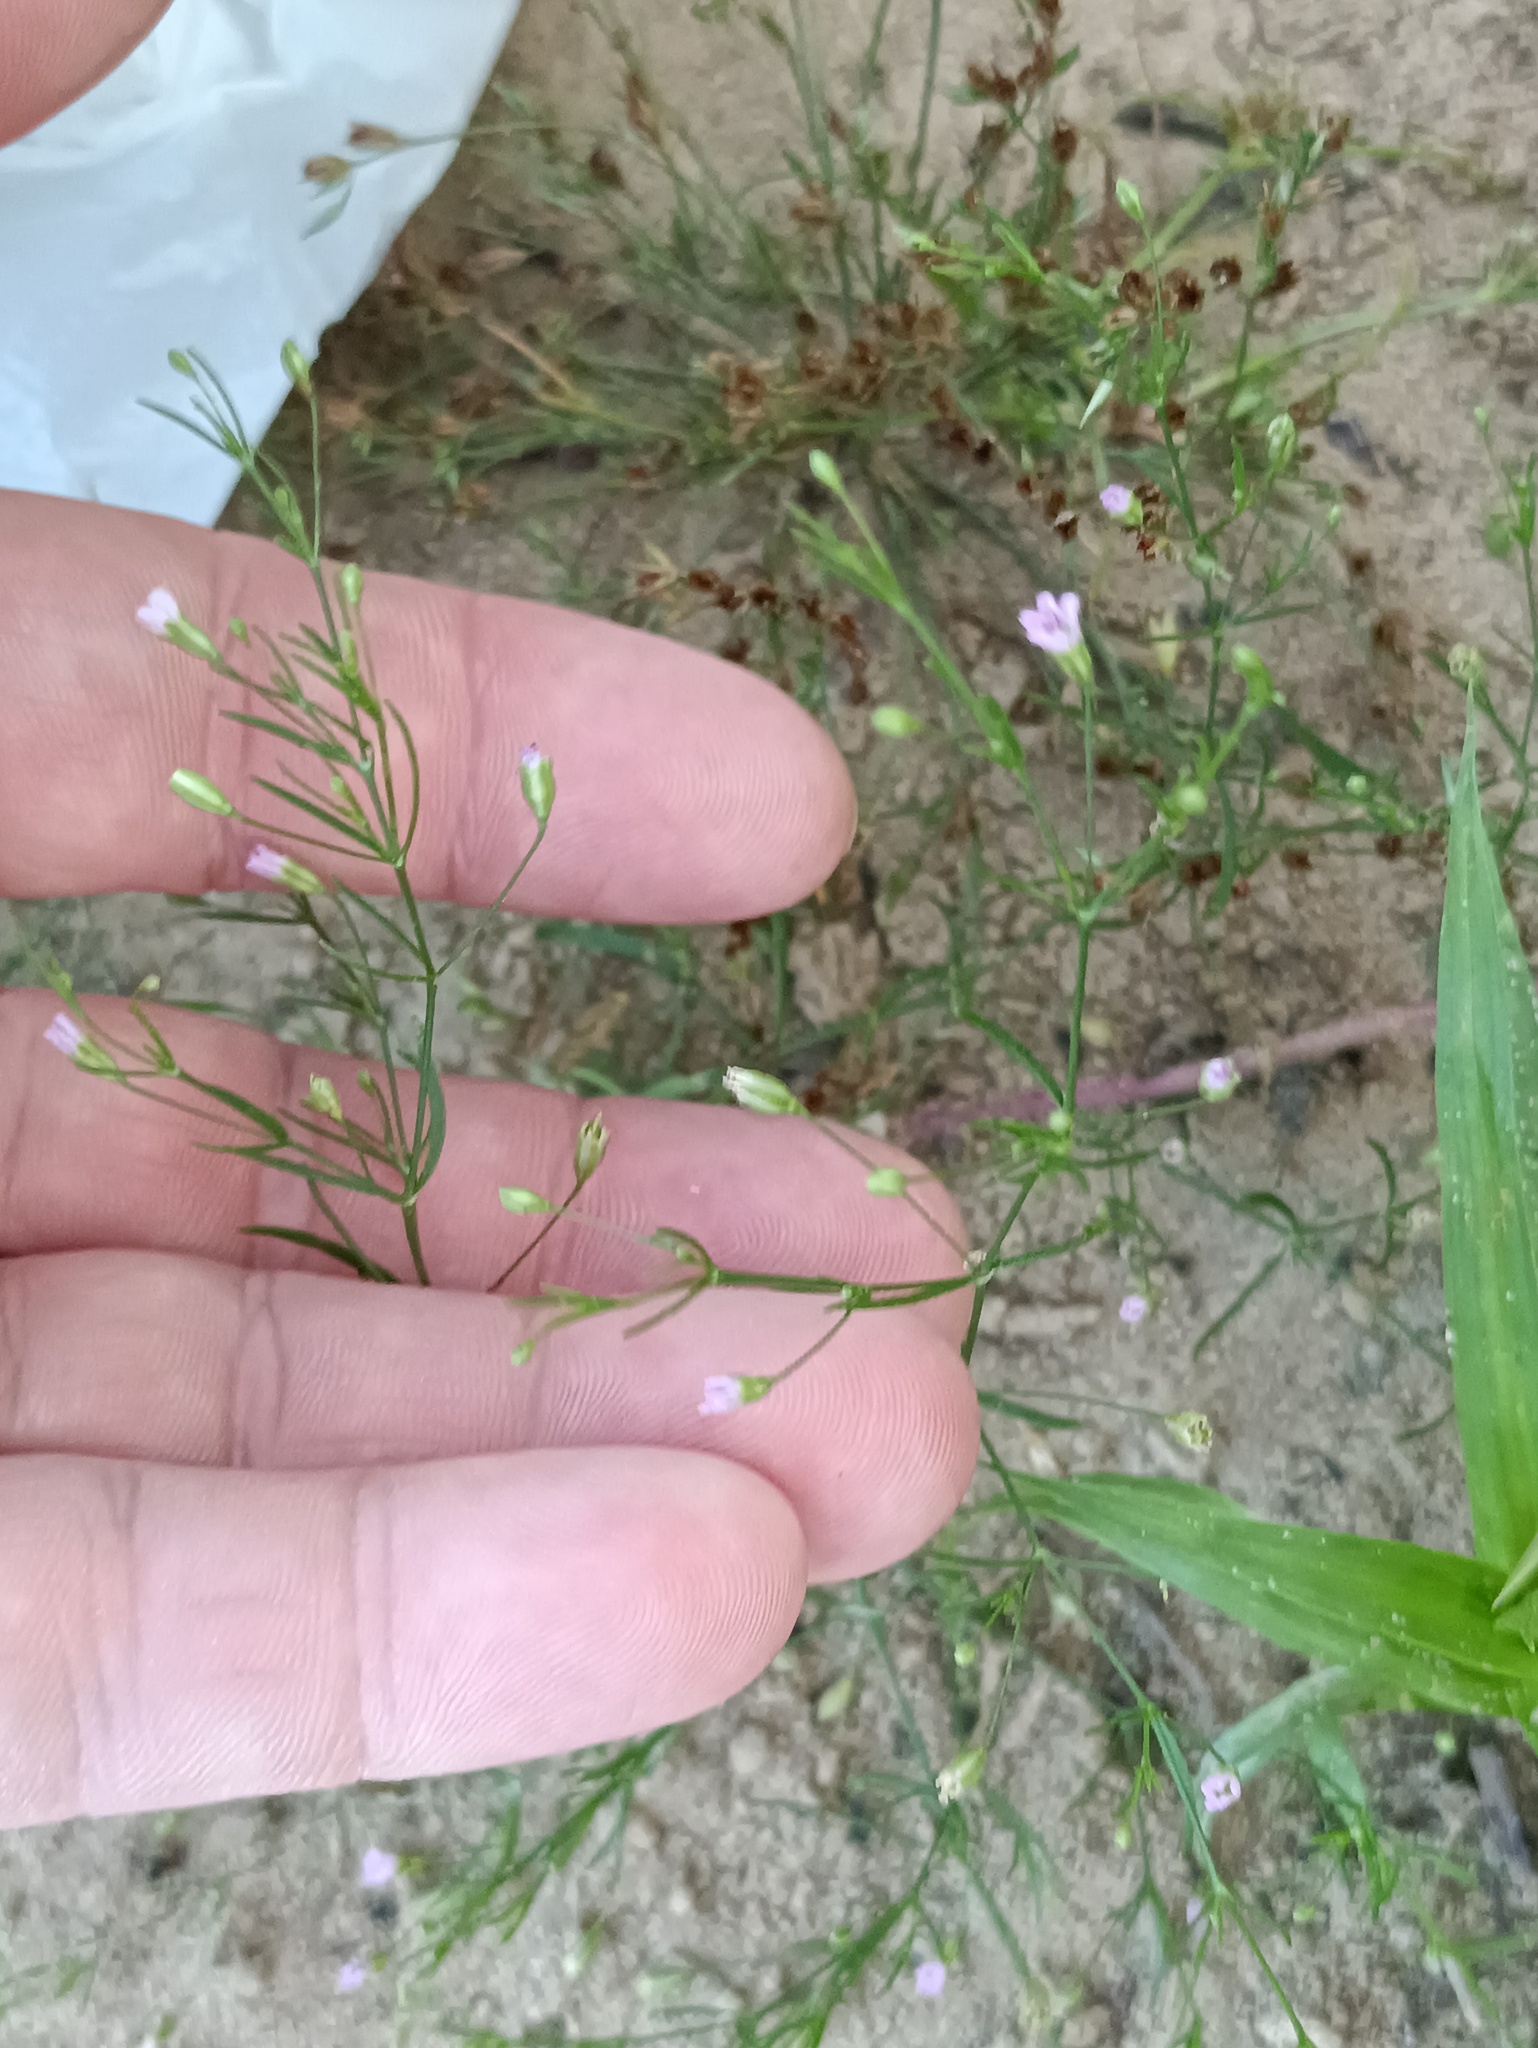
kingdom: Plantae
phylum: Tracheophyta
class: Magnoliopsida
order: Caryophyllales
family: Caryophyllaceae
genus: Psammophiliella
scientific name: Psammophiliella muralis
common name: Cushion baby's-breath
